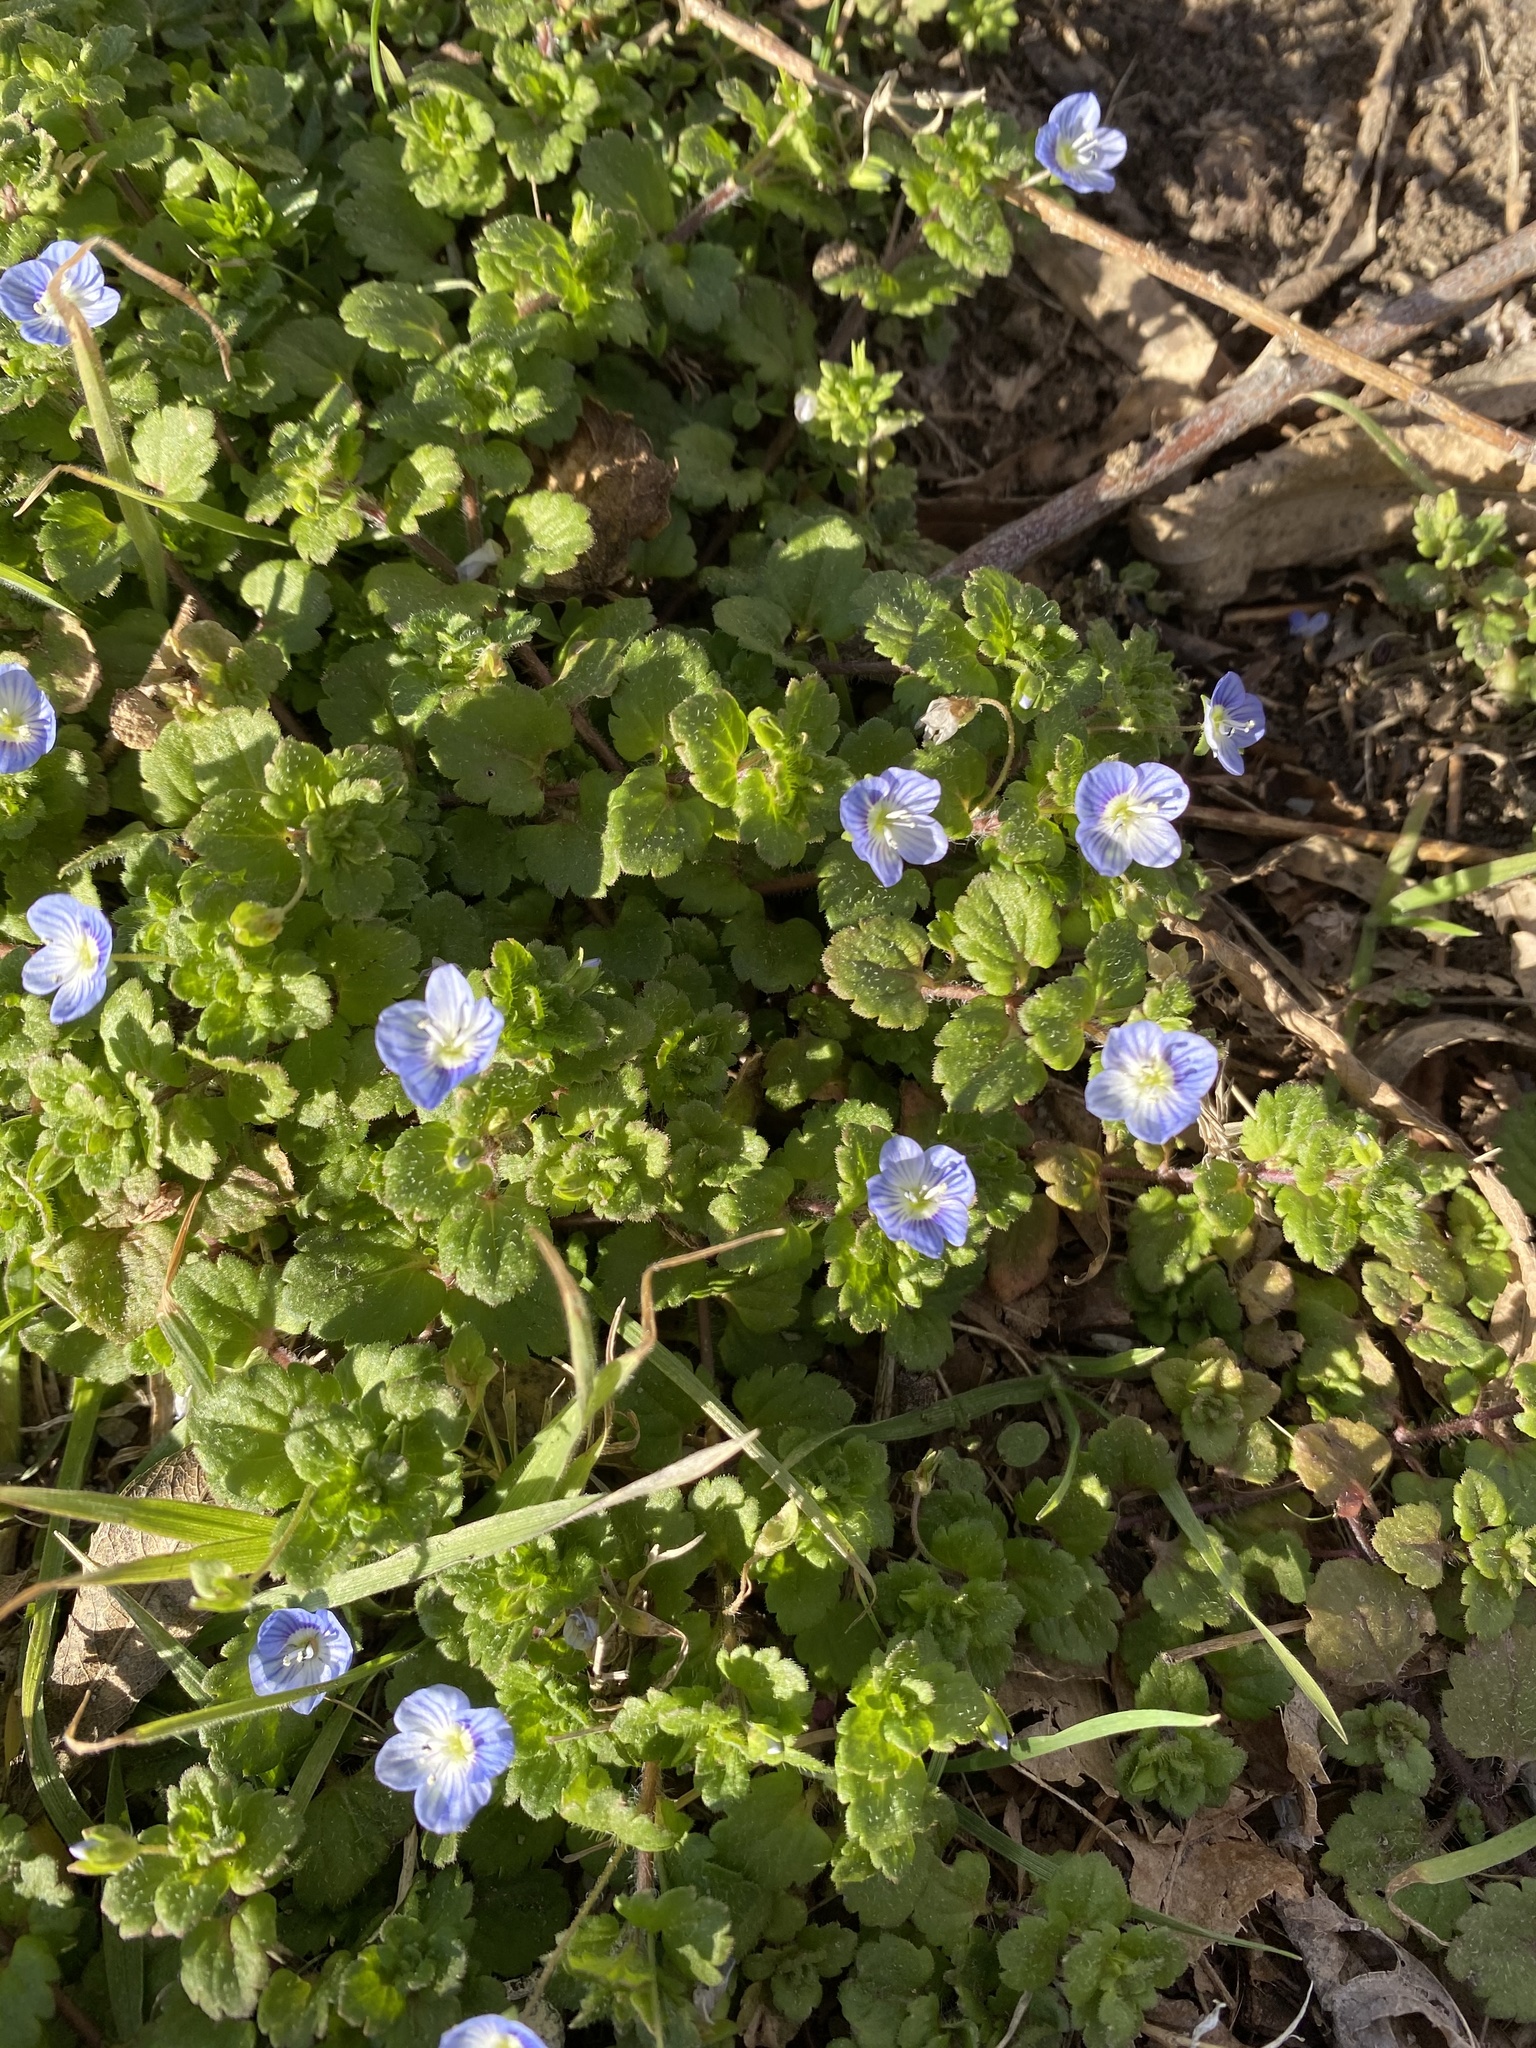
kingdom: Plantae
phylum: Tracheophyta
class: Magnoliopsida
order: Lamiales
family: Plantaginaceae
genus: Veronica
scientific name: Veronica persica
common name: Common field-speedwell
